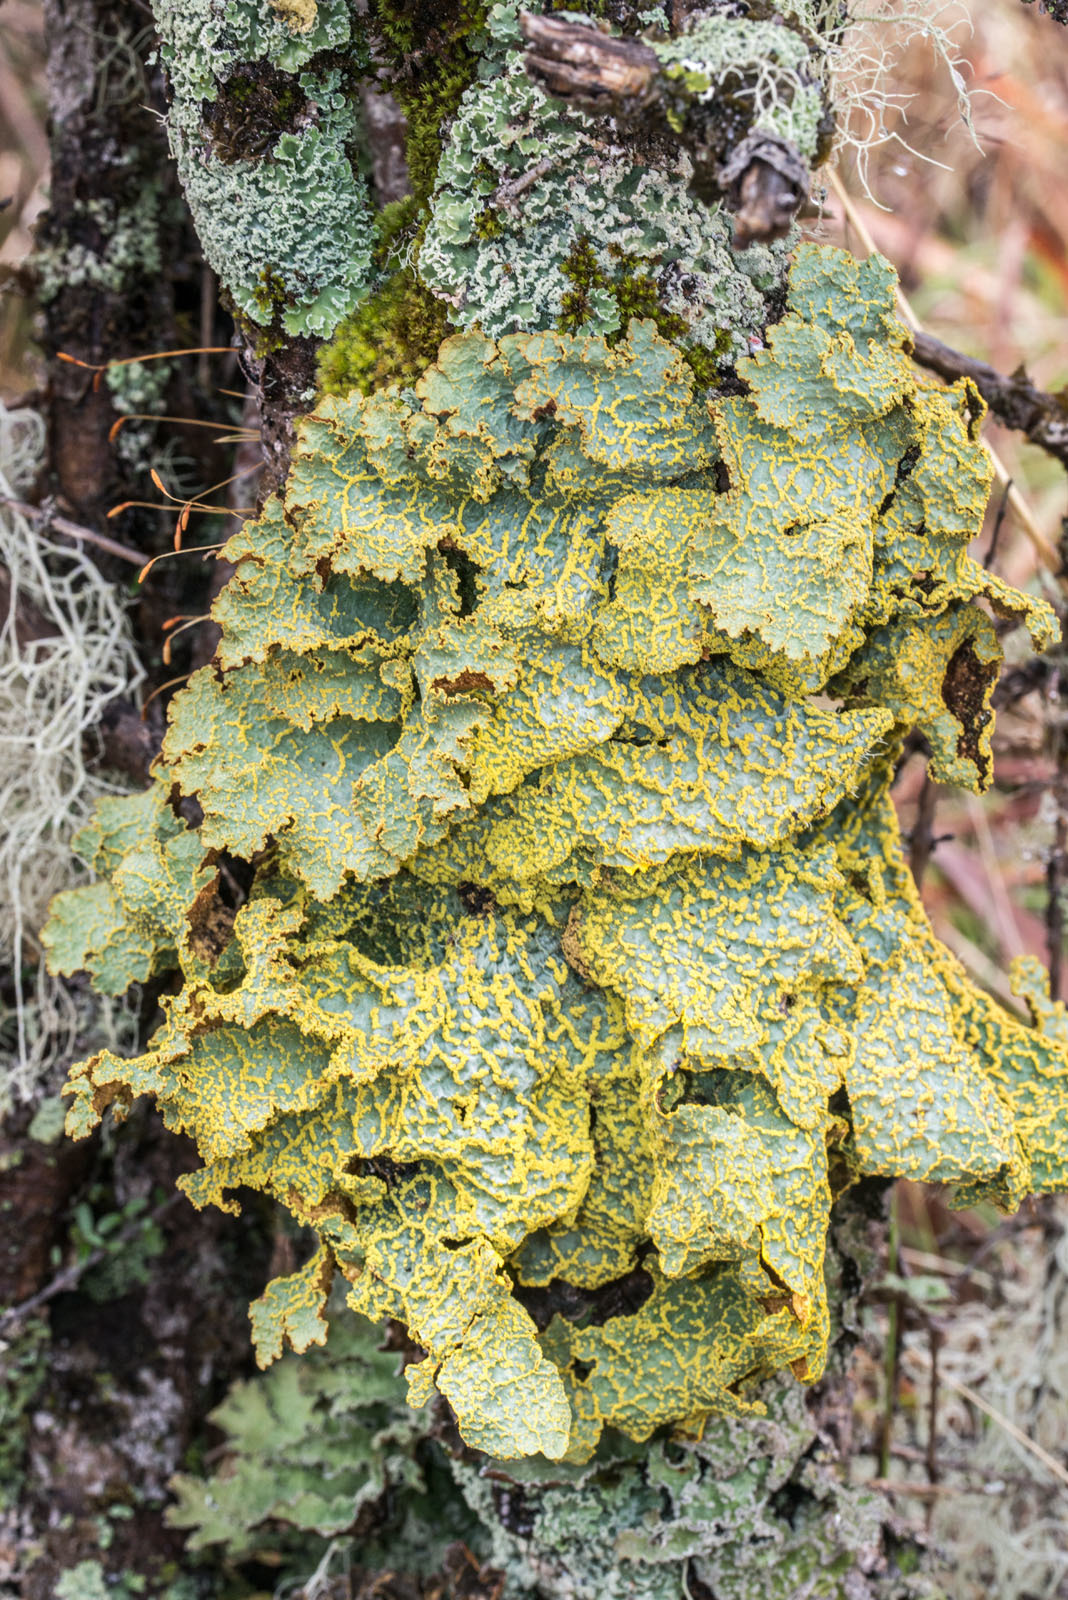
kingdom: Fungi
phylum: Ascomycota
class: Lecanoromycetes
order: Peltigerales
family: Lobariaceae
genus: Yarrumia
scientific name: Yarrumia colensoi
